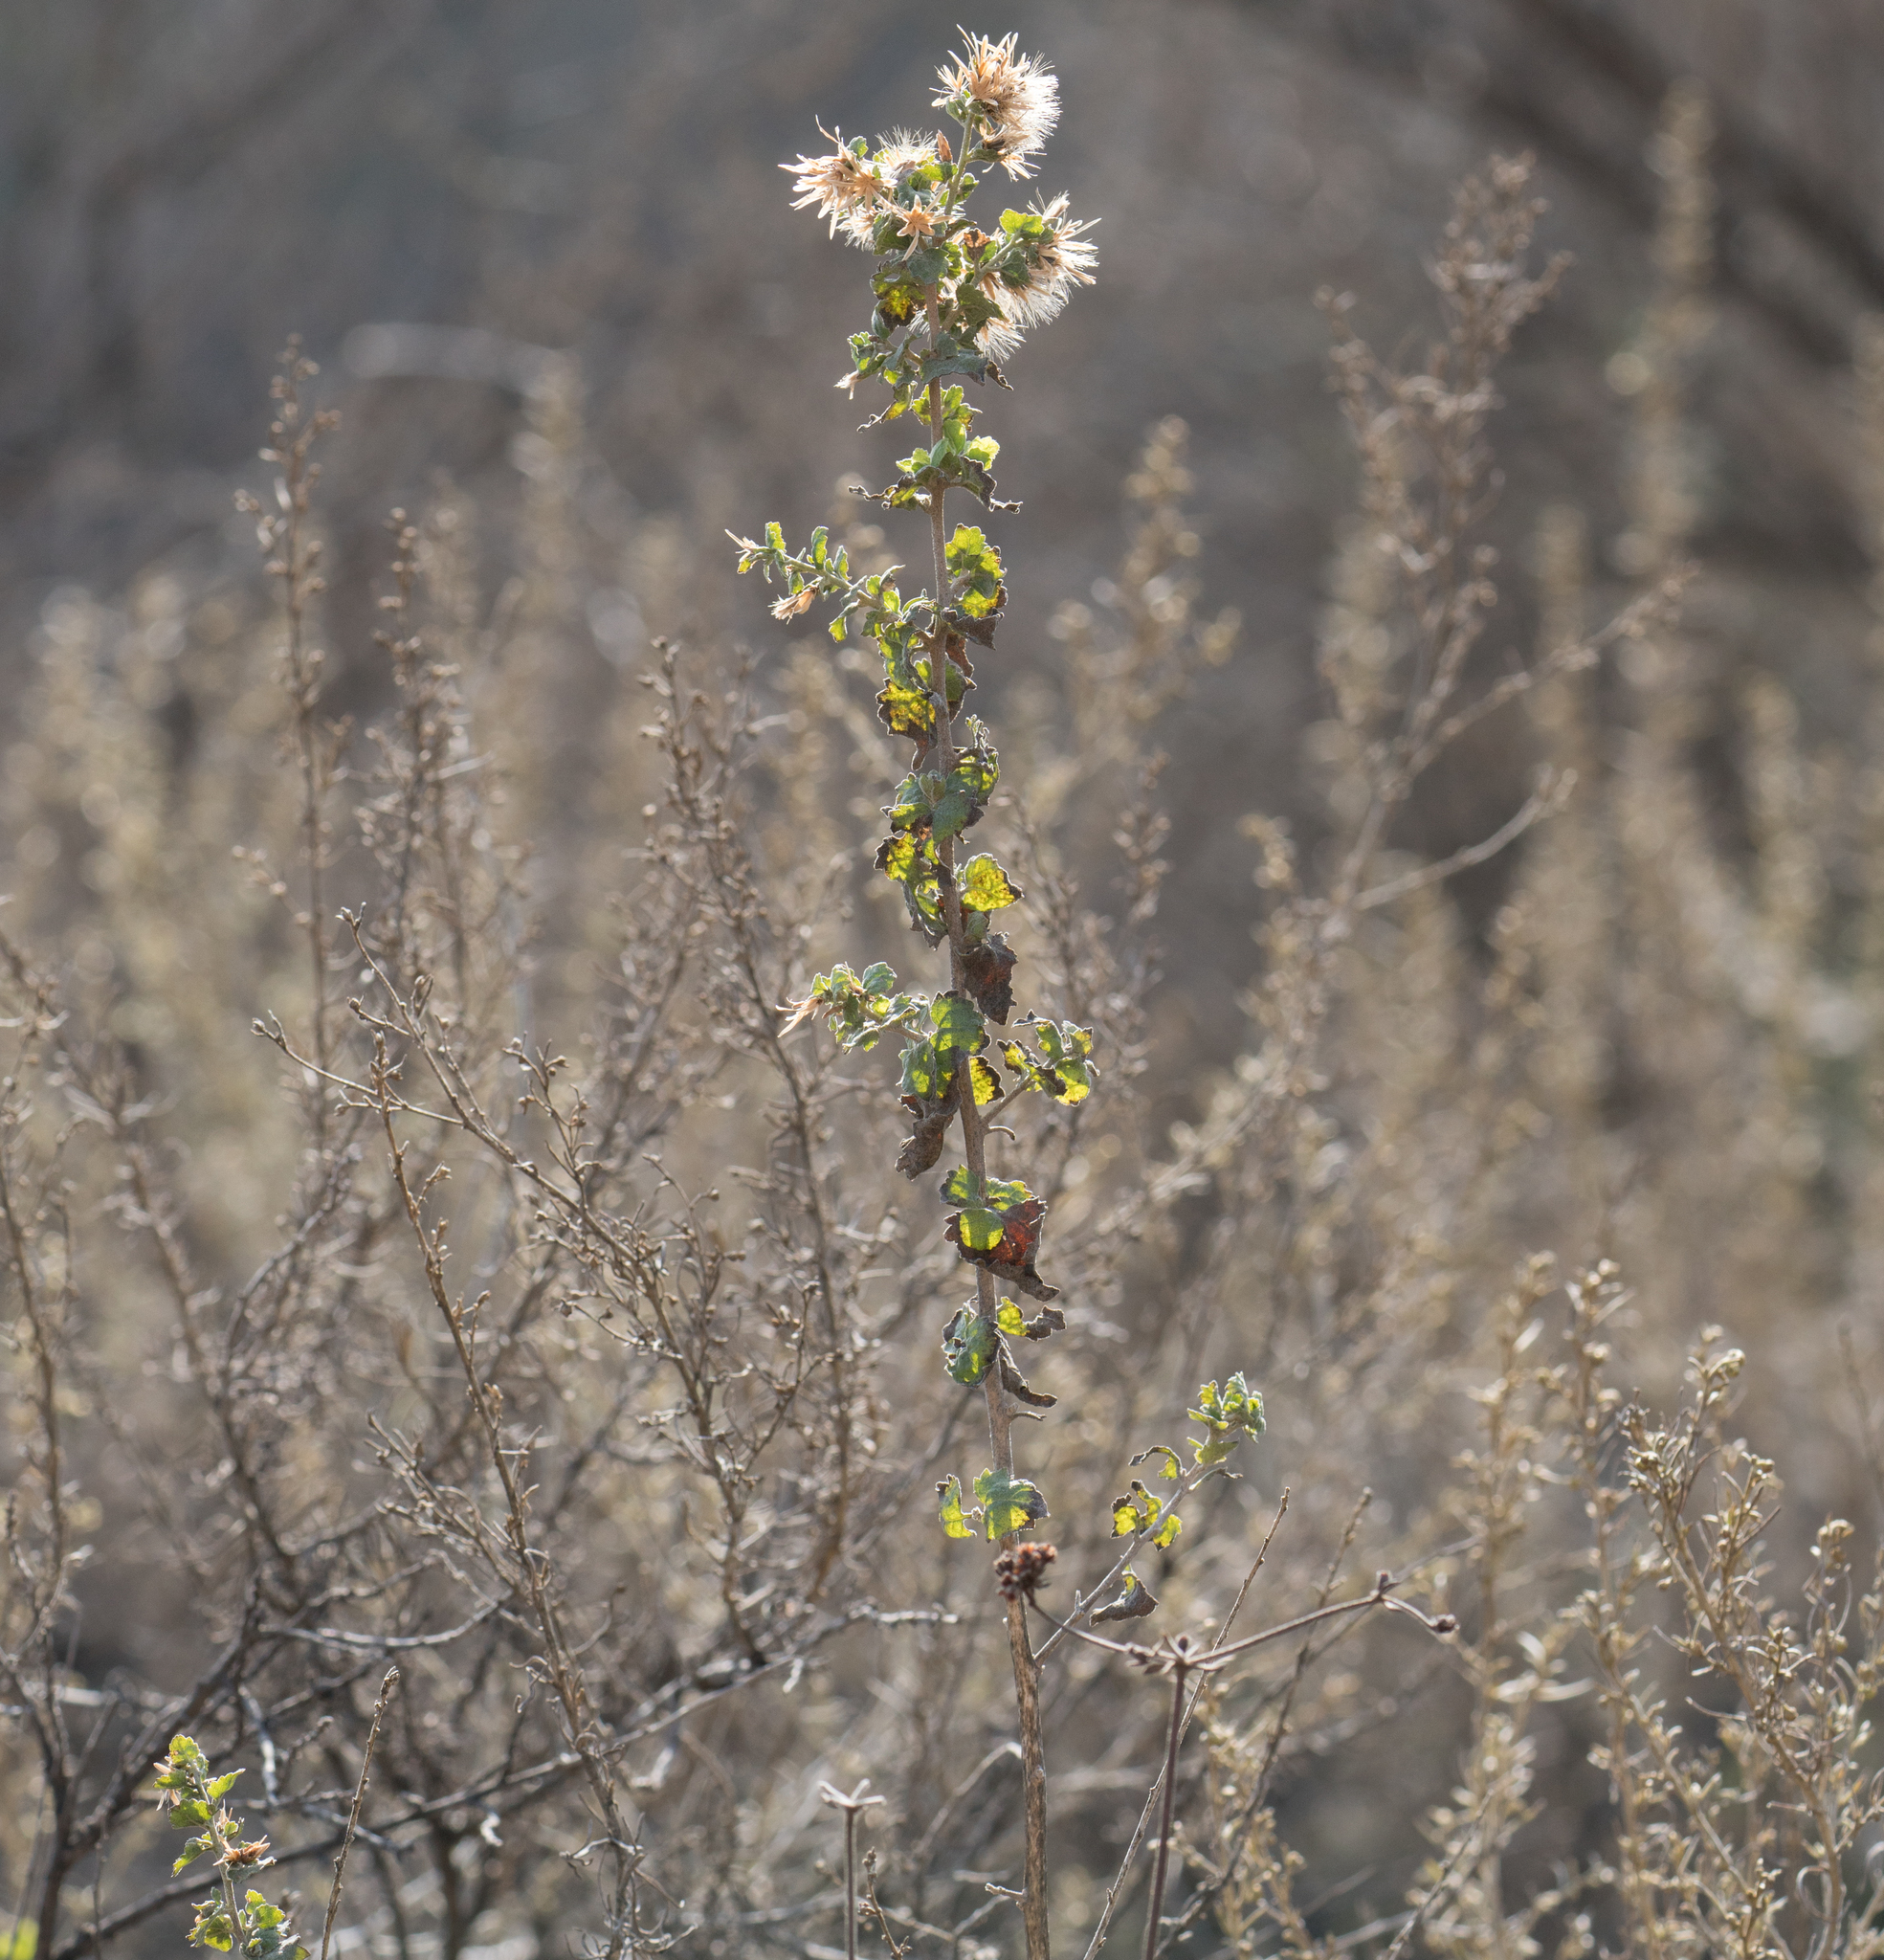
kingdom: Plantae
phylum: Tracheophyta
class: Magnoliopsida
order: Asterales
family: Asteraceae
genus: Brickellia
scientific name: Brickellia californica
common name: California brickellbush
